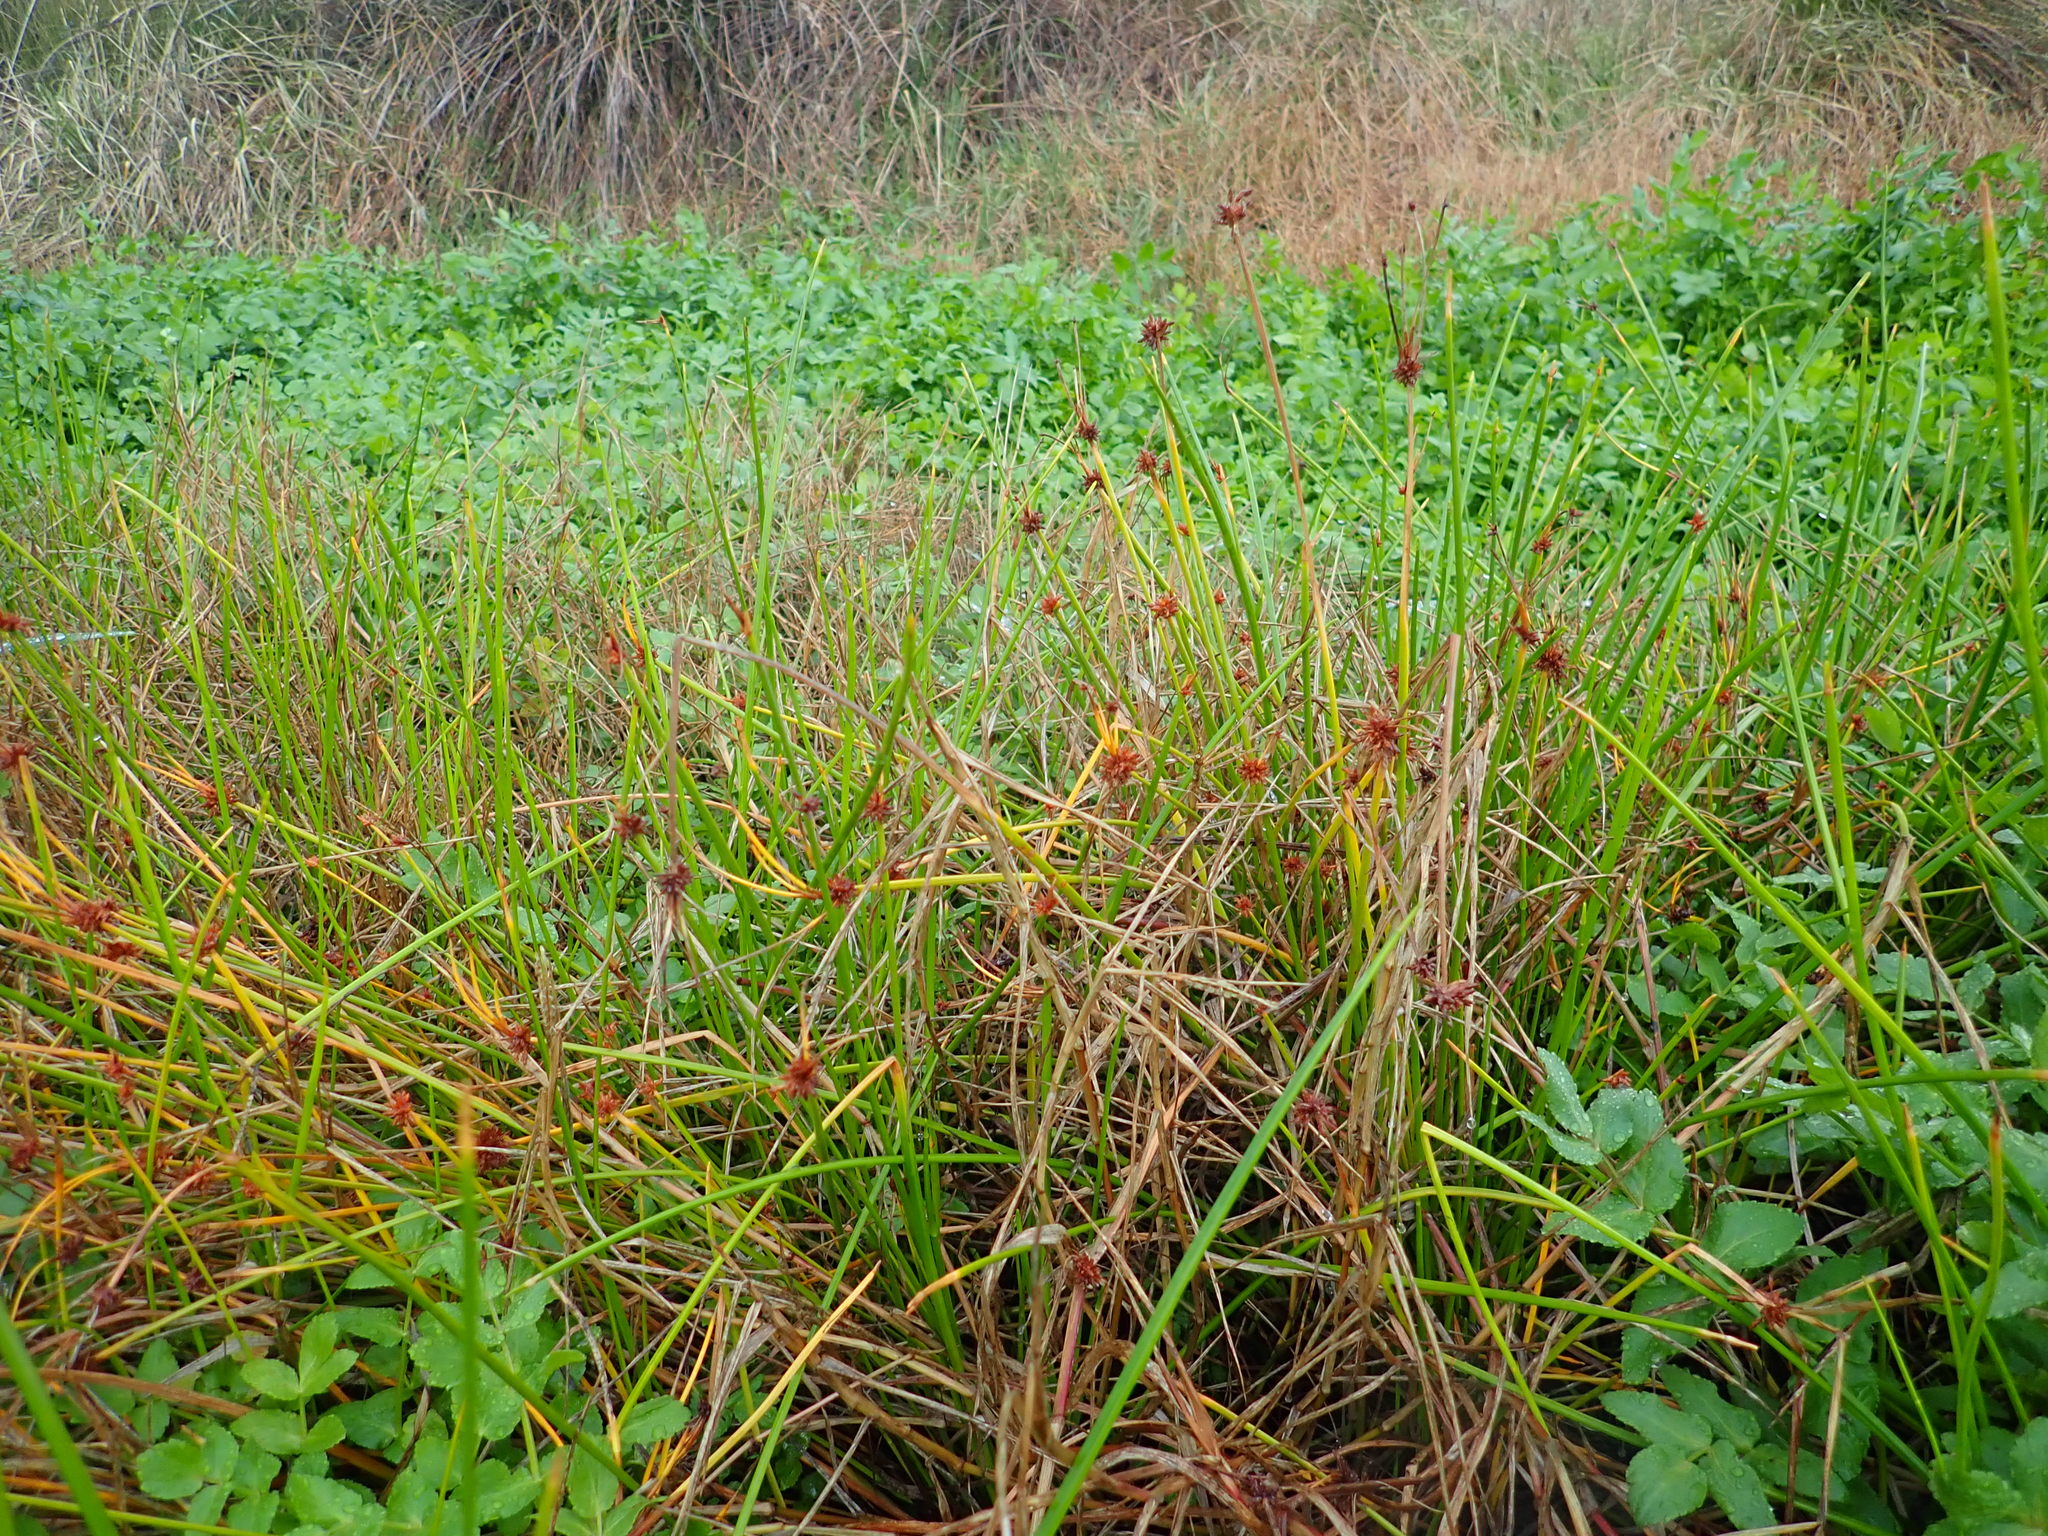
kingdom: Plantae
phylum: Tracheophyta
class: Liliopsida
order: Poales
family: Cyperaceae
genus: Isolepis
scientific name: Isolepis prolifera
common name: Proliferating bulrush
